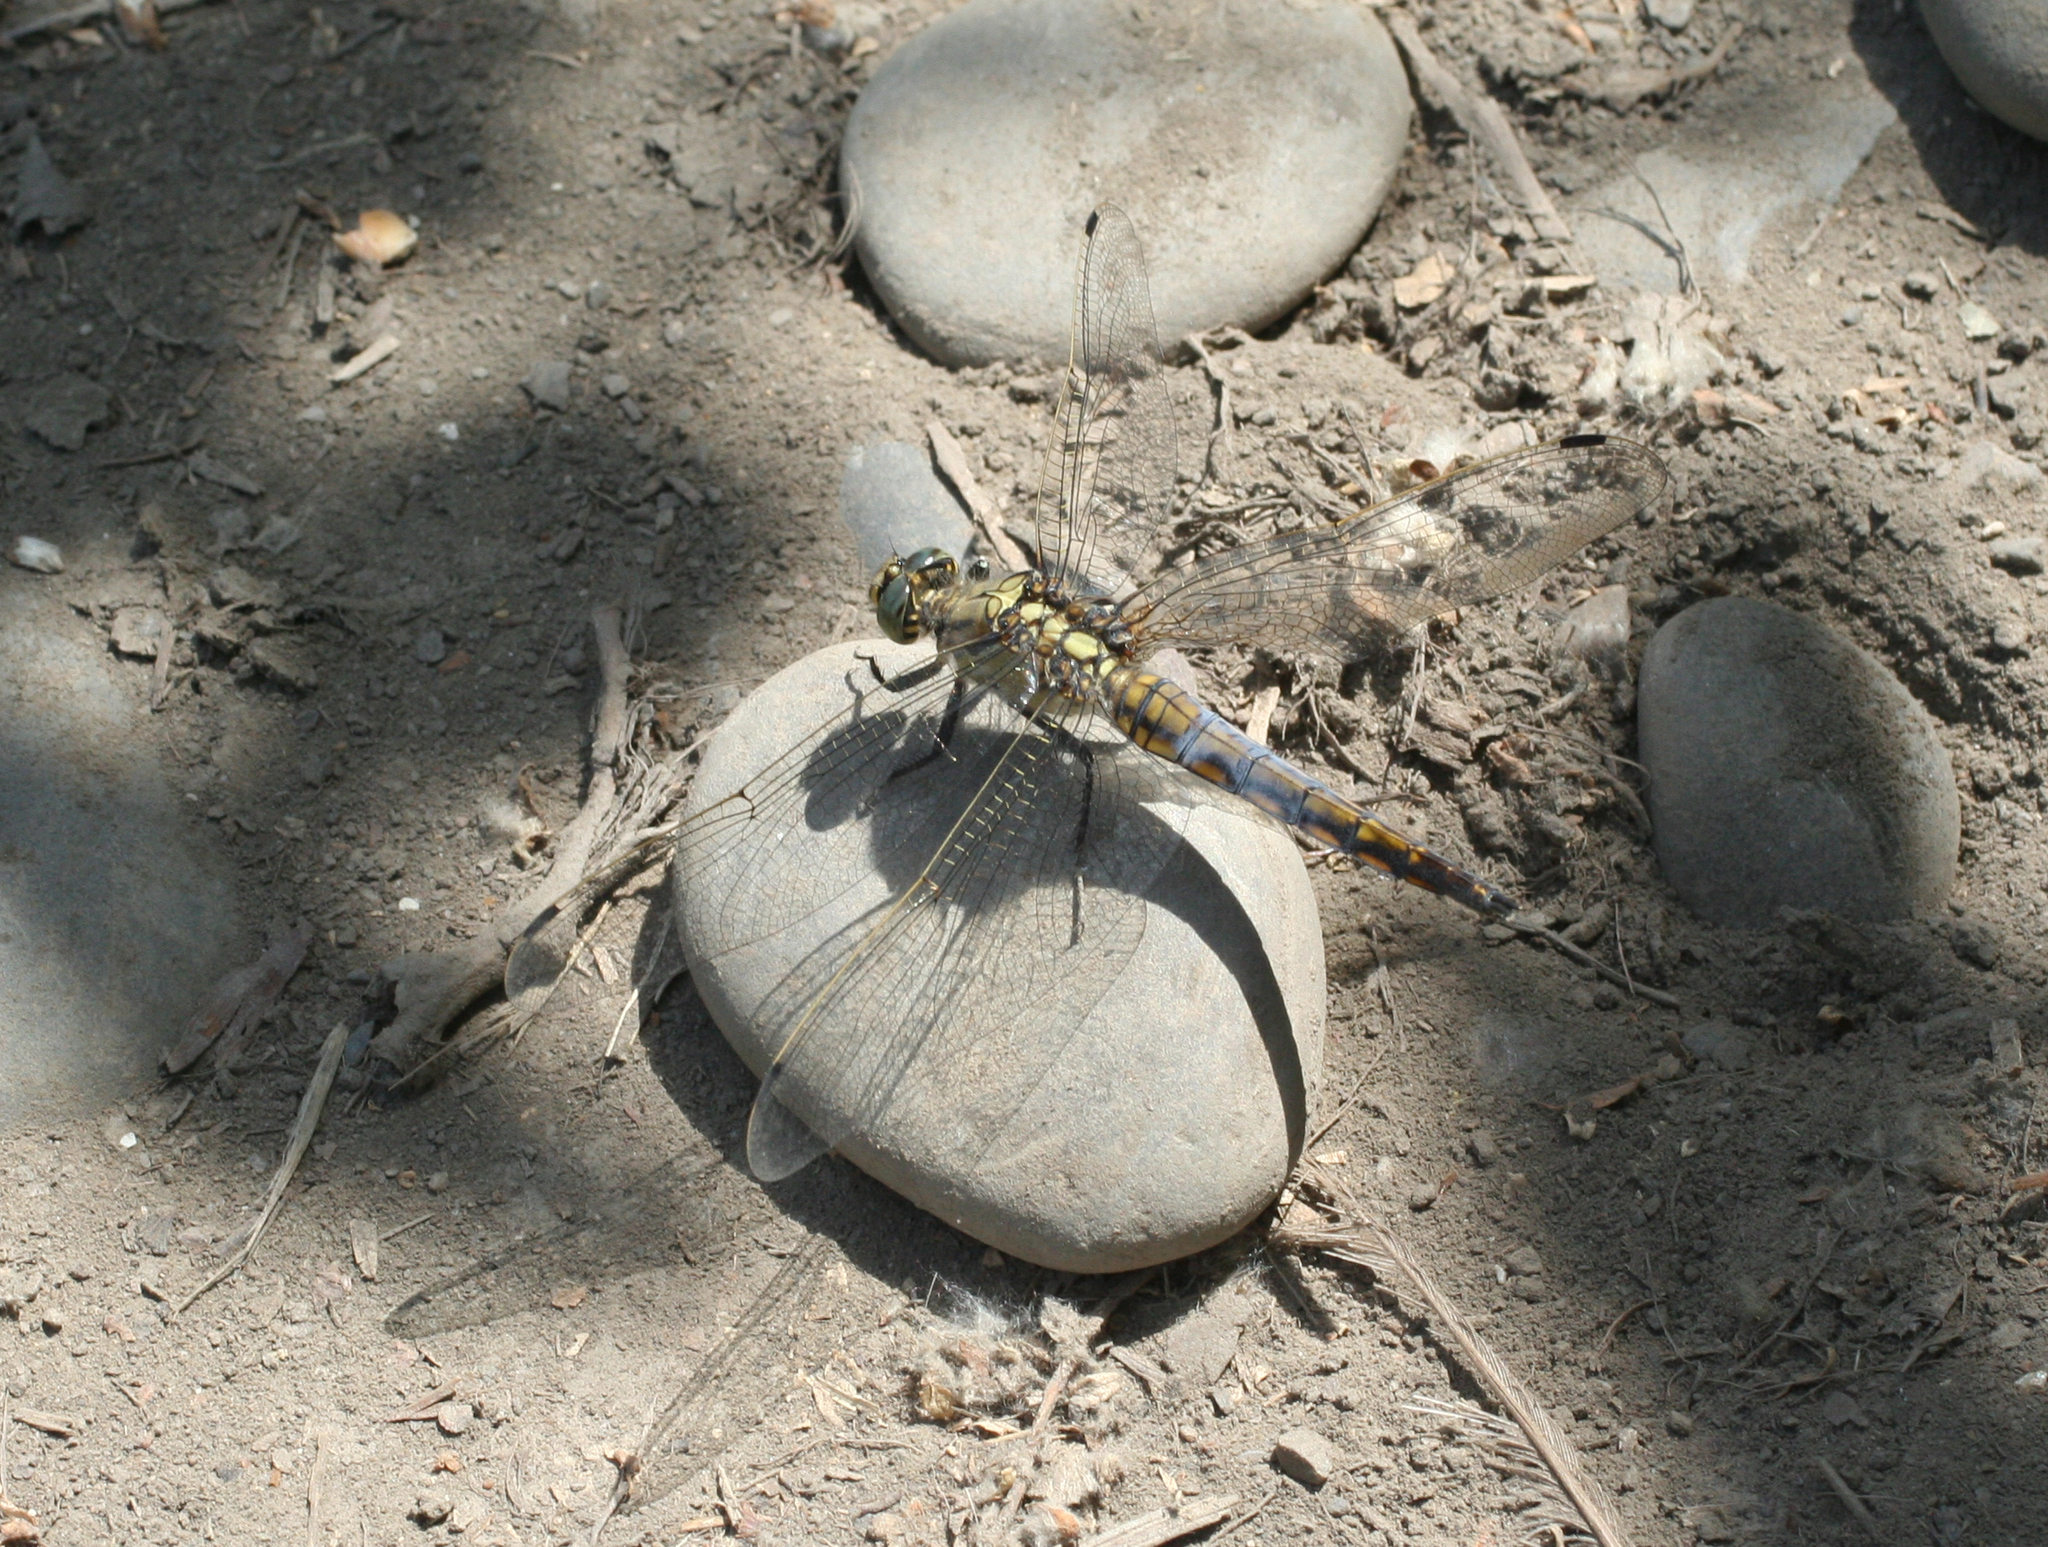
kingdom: Animalia
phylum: Arthropoda
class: Insecta
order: Odonata
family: Libellulidae
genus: Orthetrum
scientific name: Orthetrum cancellatum
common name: Black-tailed skimmer
